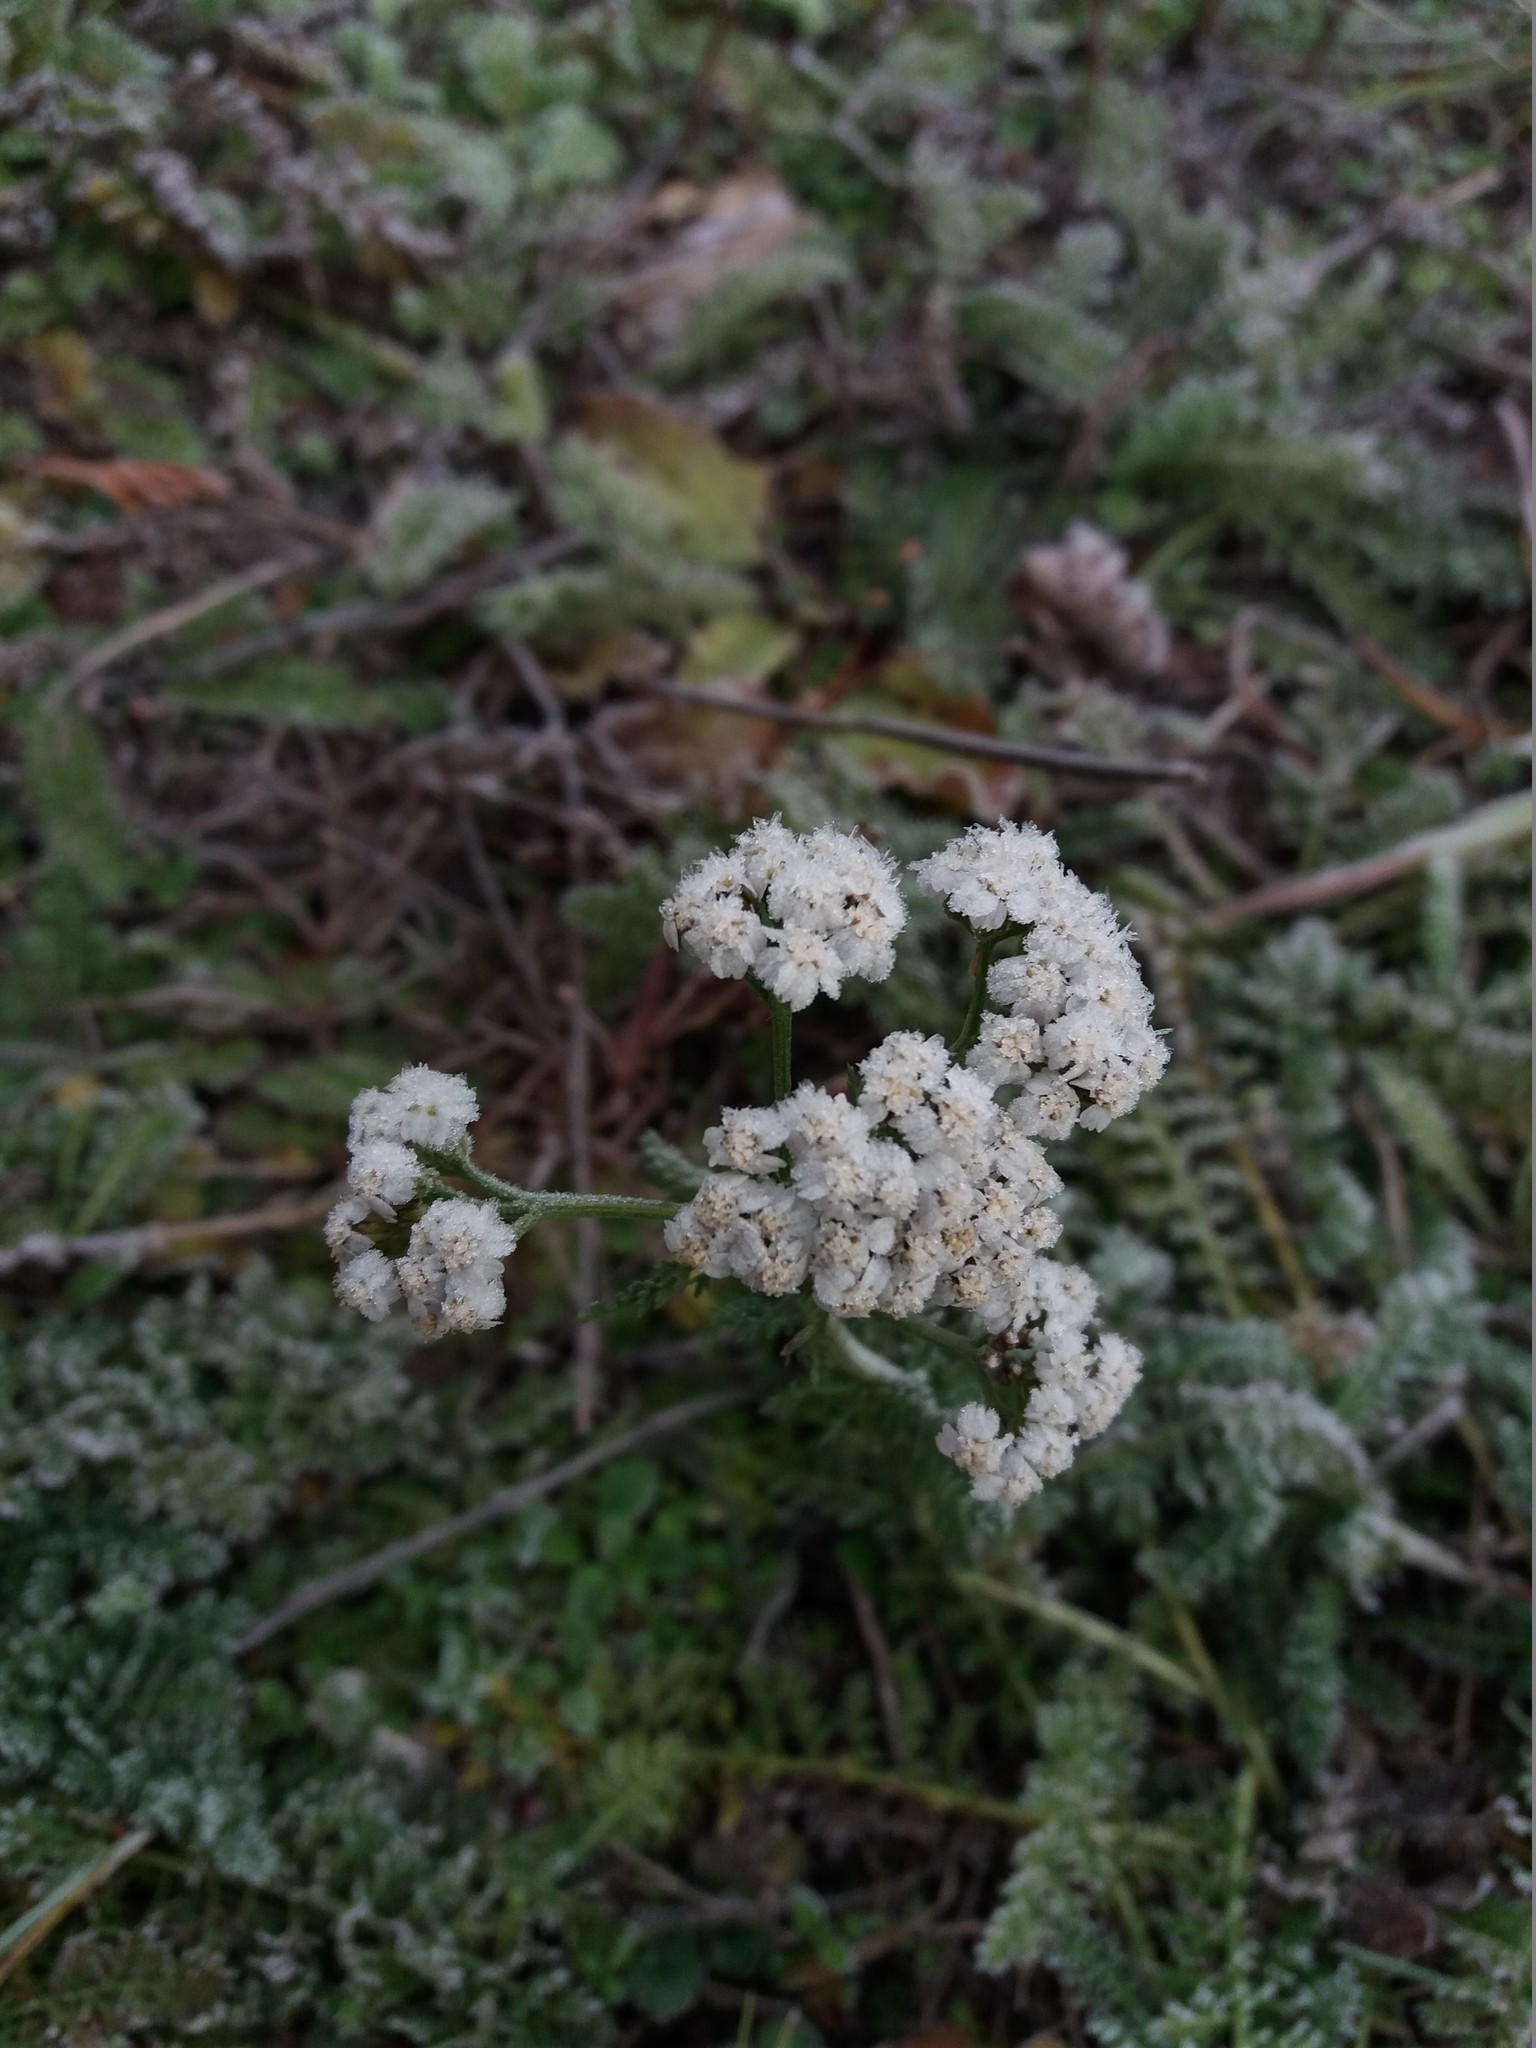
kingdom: Plantae
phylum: Tracheophyta
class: Magnoliopsida
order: Asterales
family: Asteraceae
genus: Achillea
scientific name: Achillea millefolium
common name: Yarrow
